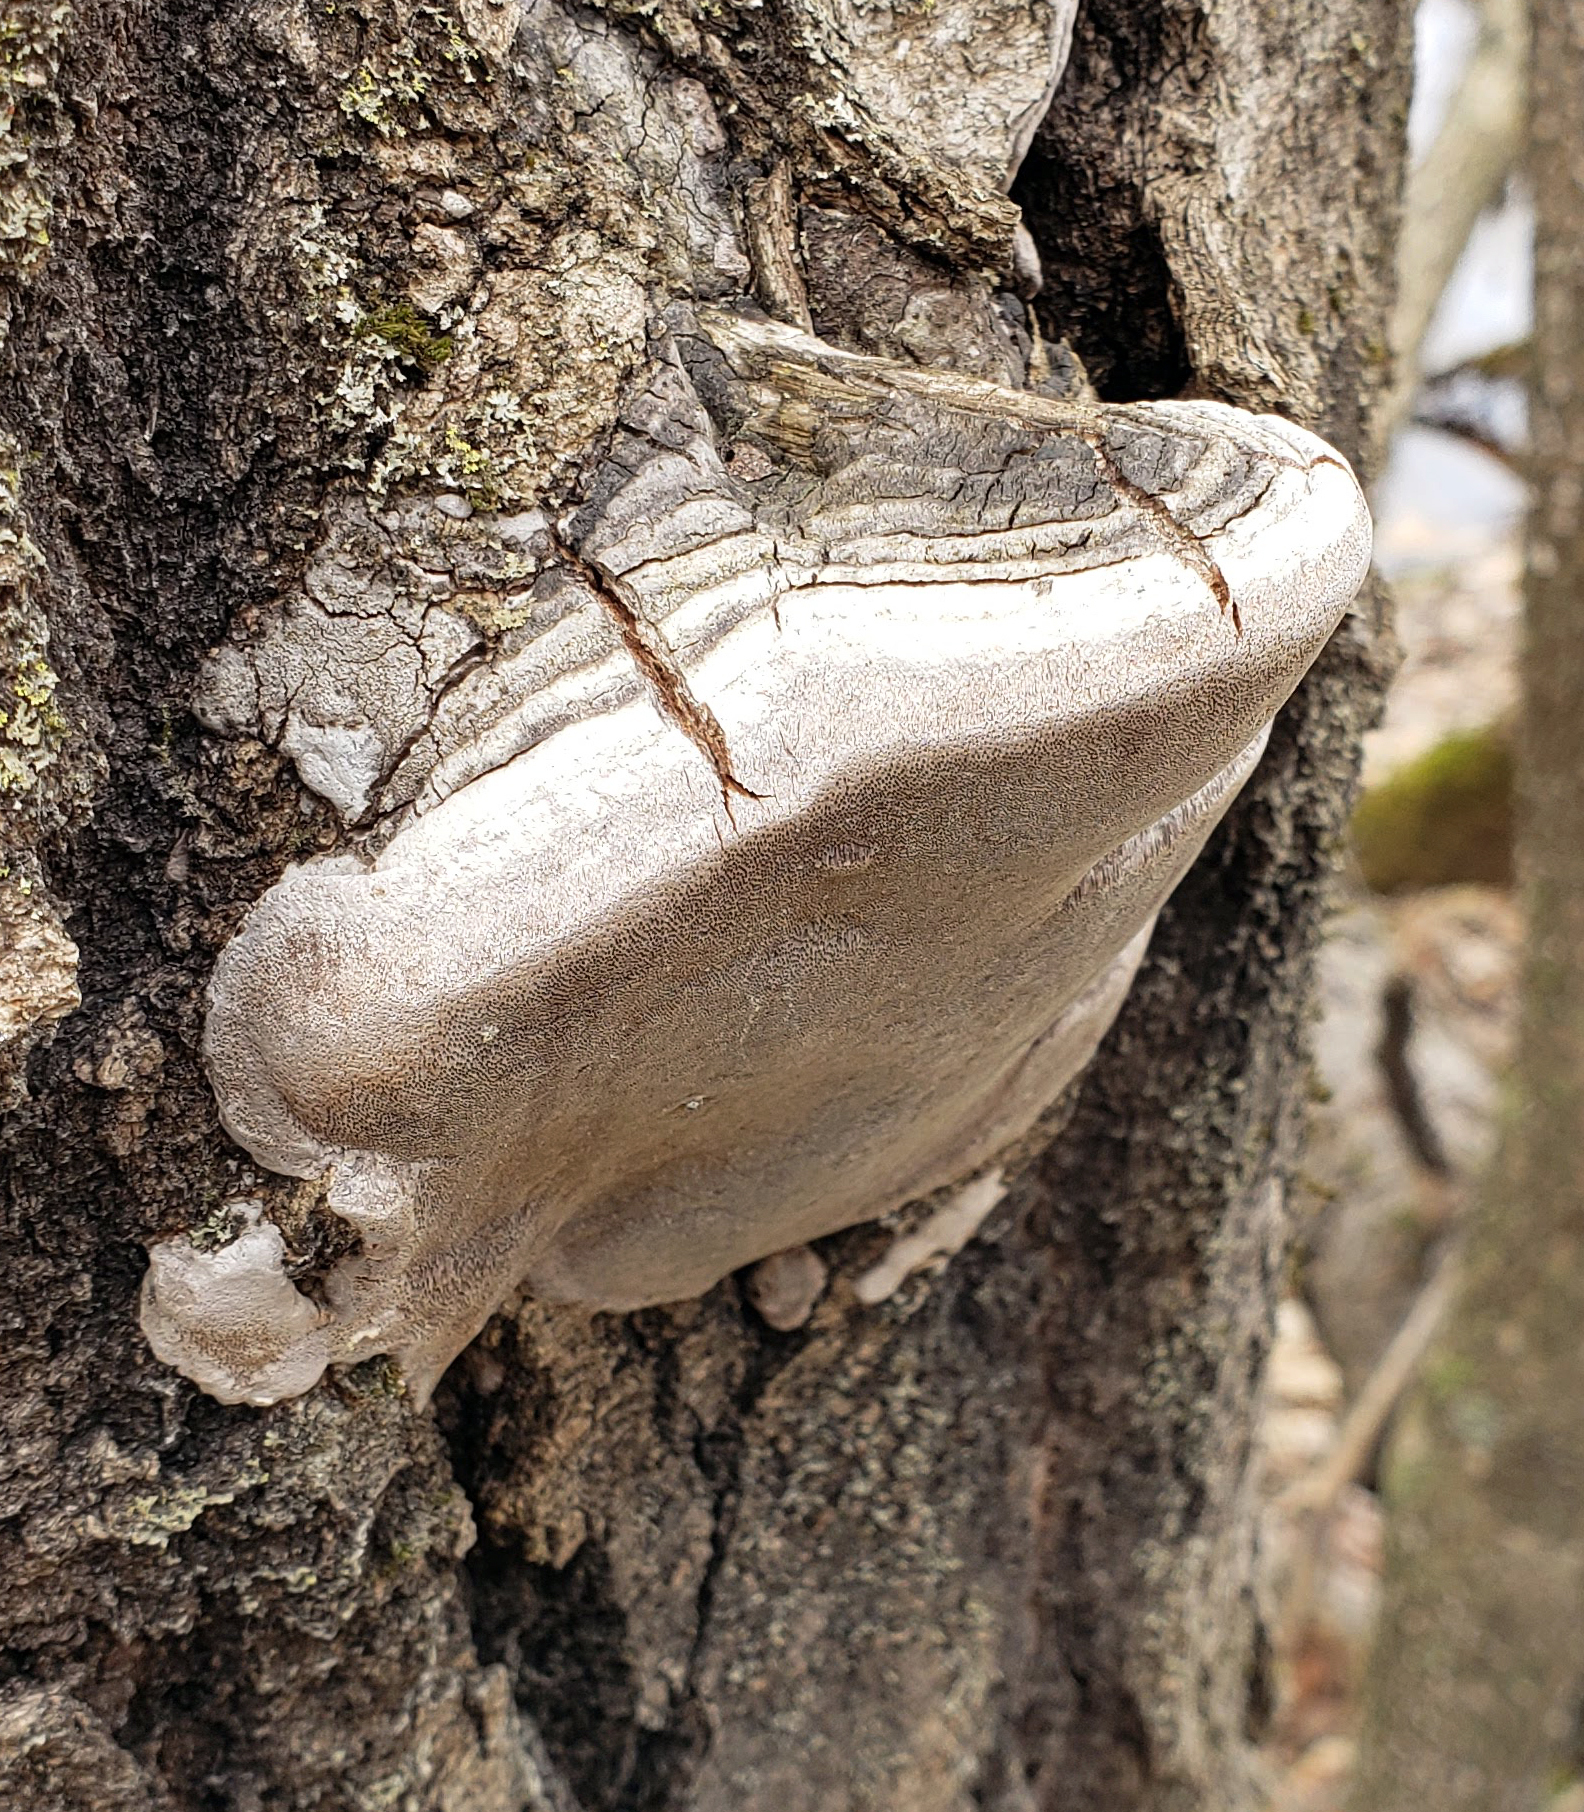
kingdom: Fungi
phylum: Basidiomycota
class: Agaricomycetes
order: Hymenochaetales
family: Hymenochaetaceae
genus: Phellinus
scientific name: Phellinus tremulae
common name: Aspen bracket
